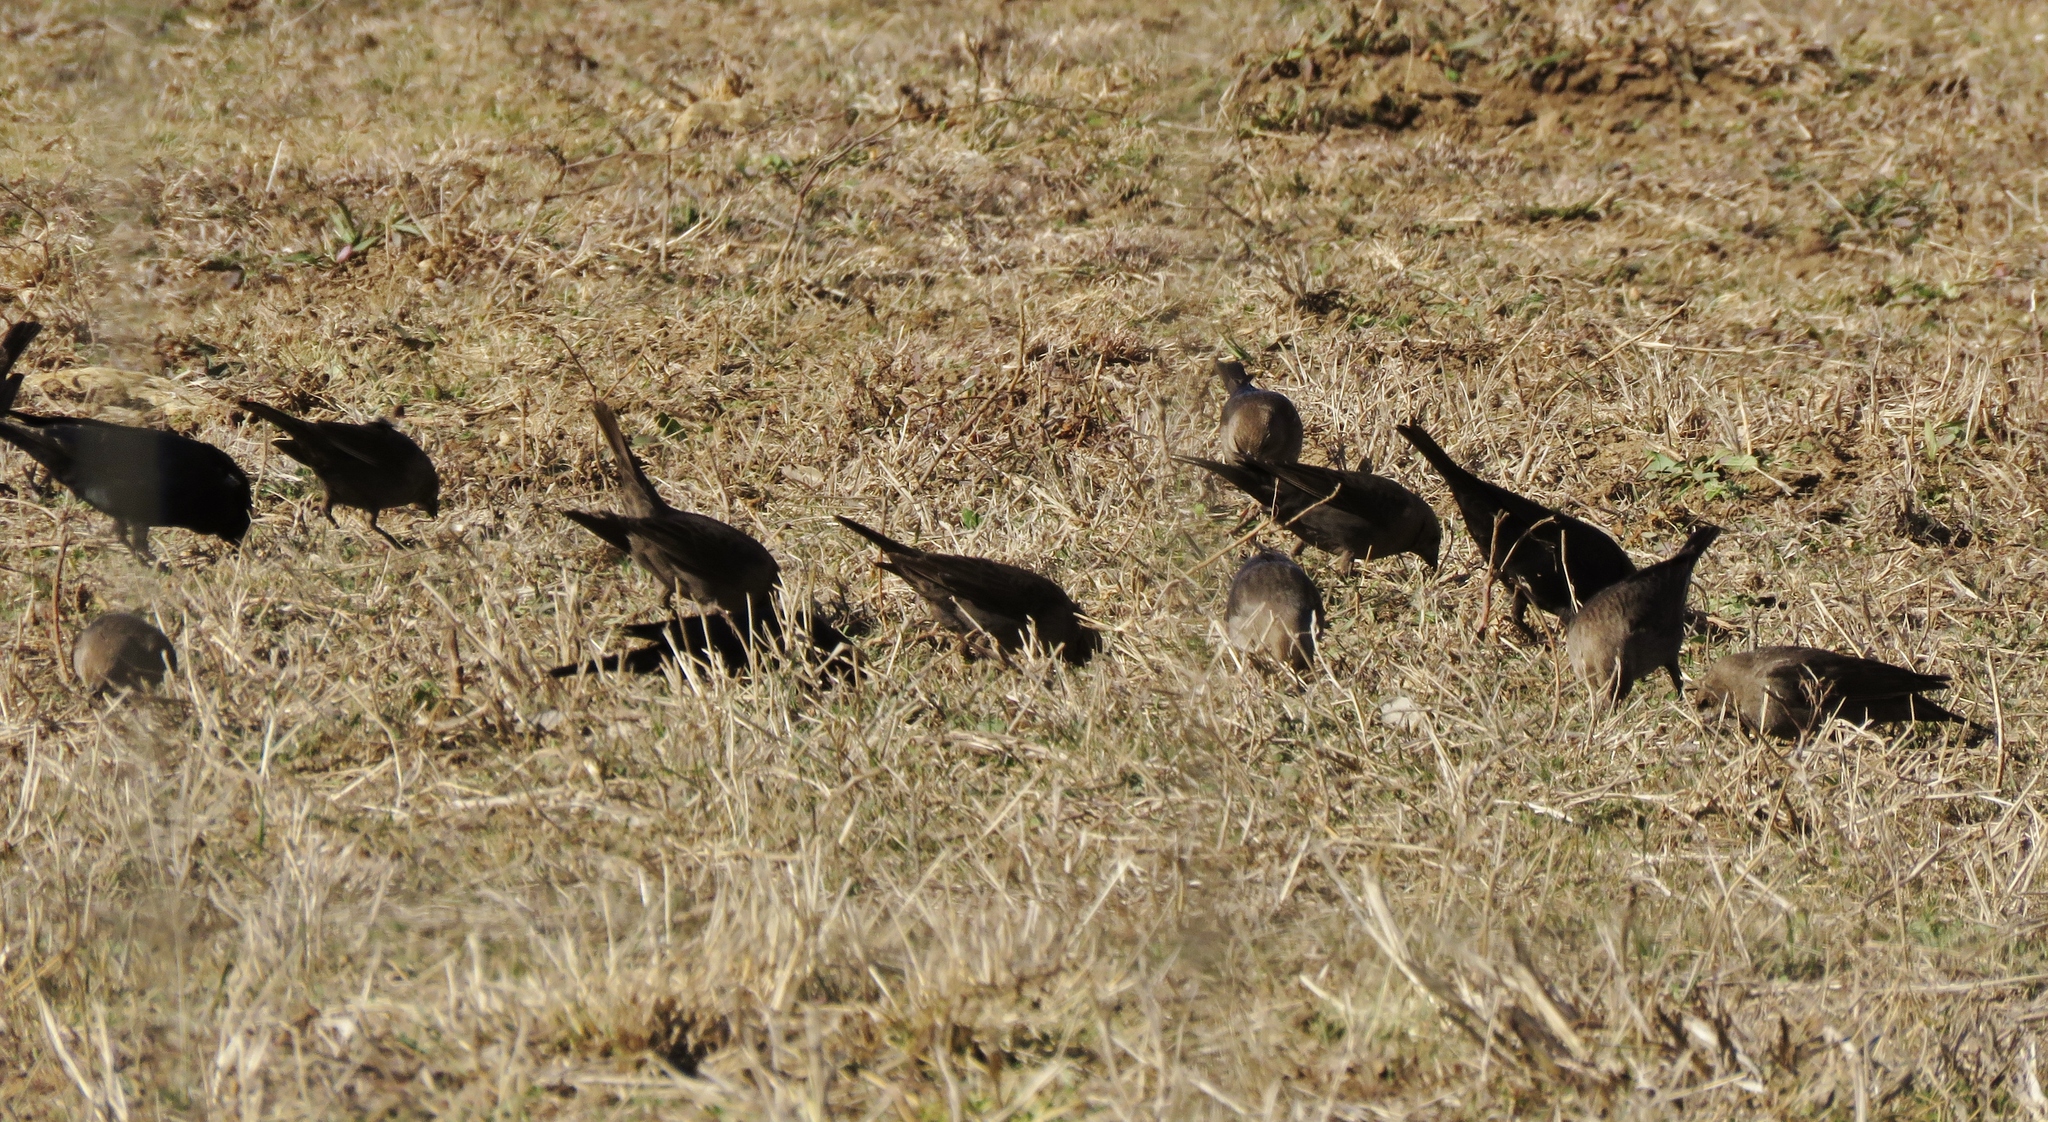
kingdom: Animalia
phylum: Chordata
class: Aves
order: Passeriformes
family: Icteridae
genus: Molothrus
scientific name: Molothrus ater
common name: Brown-headed cowbird
